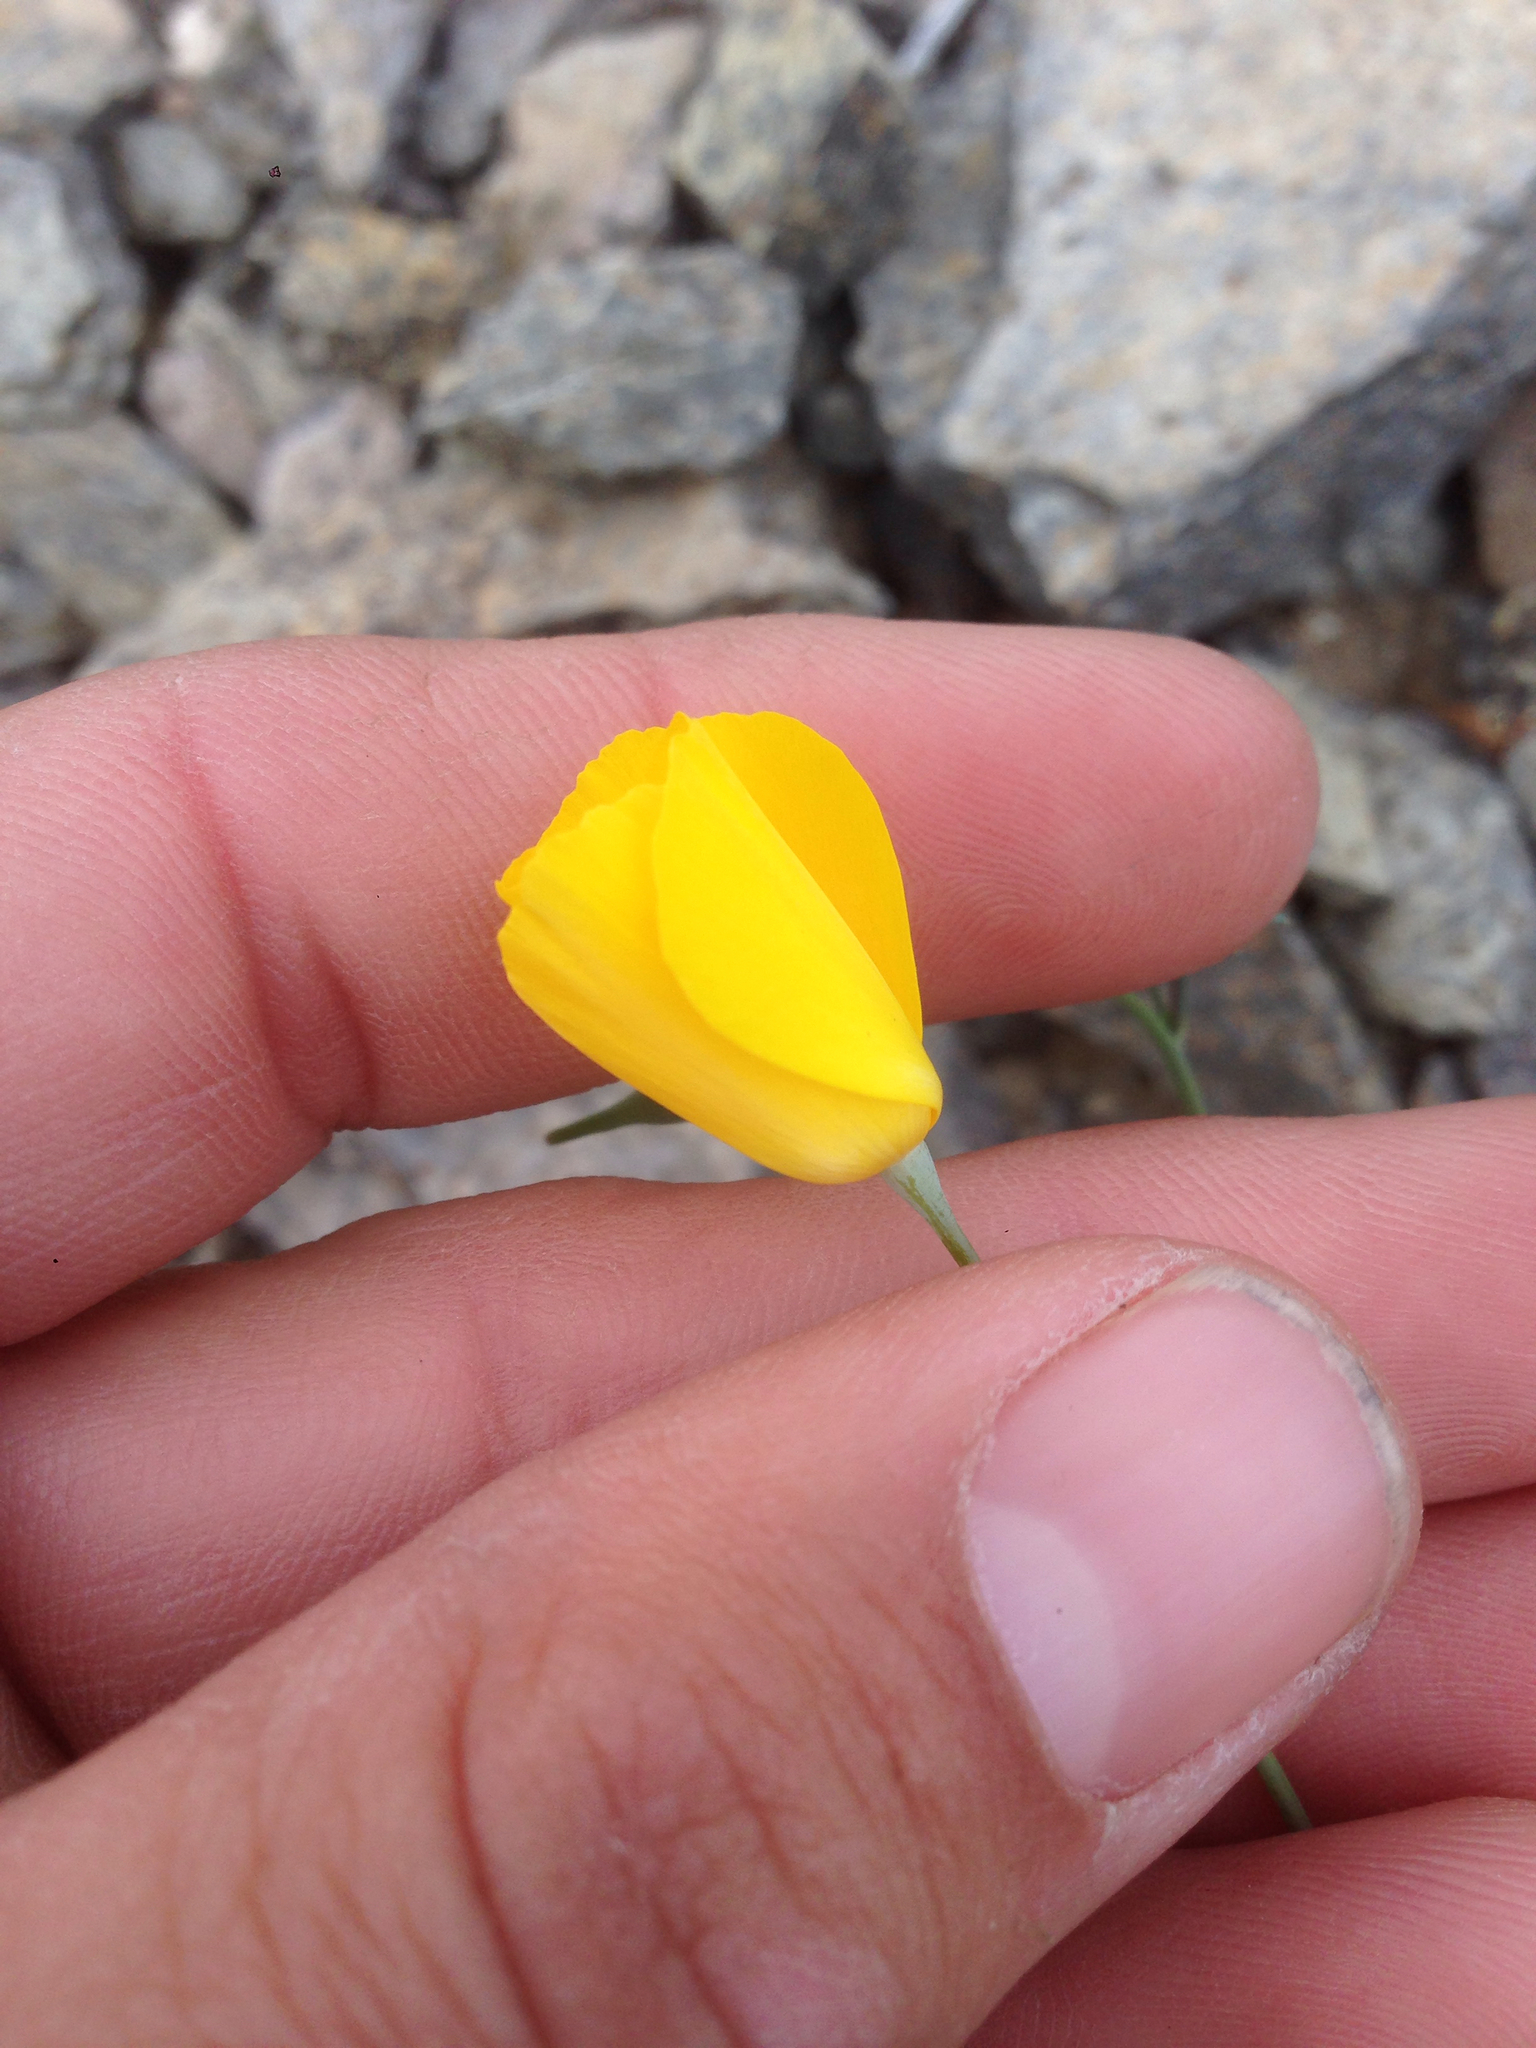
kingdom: Plantae
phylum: Tracheophyta
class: Magnoliopsida
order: Ranunculales
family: Papaveraceae
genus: Eschscholzia
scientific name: Eschscholzia parishii
